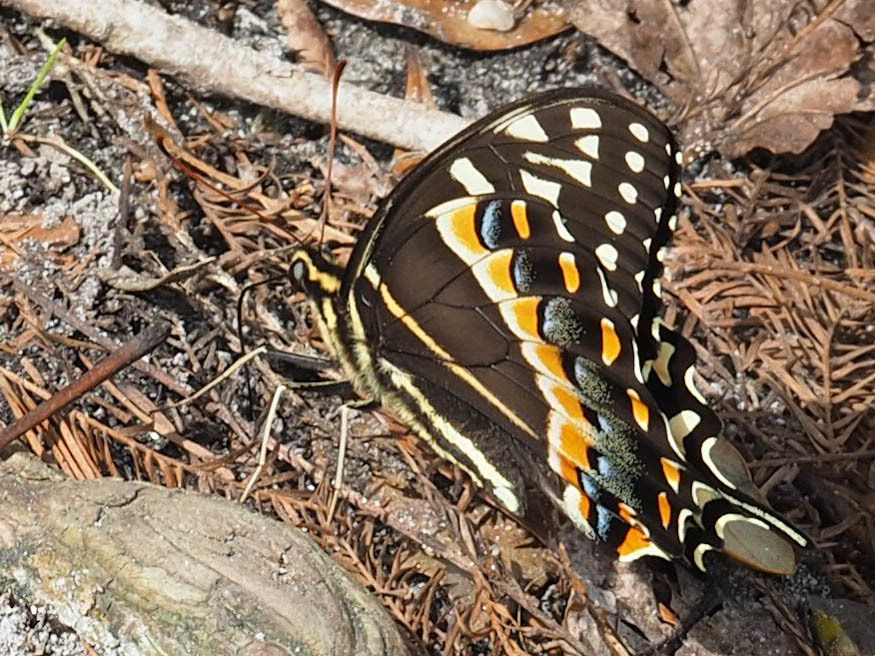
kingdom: Animalia
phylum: Arthropoda
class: Insecta
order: Lepidoptera
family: Papilionidae
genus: Papilio
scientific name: Papilio palamedes
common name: Palamedes swallowtail
